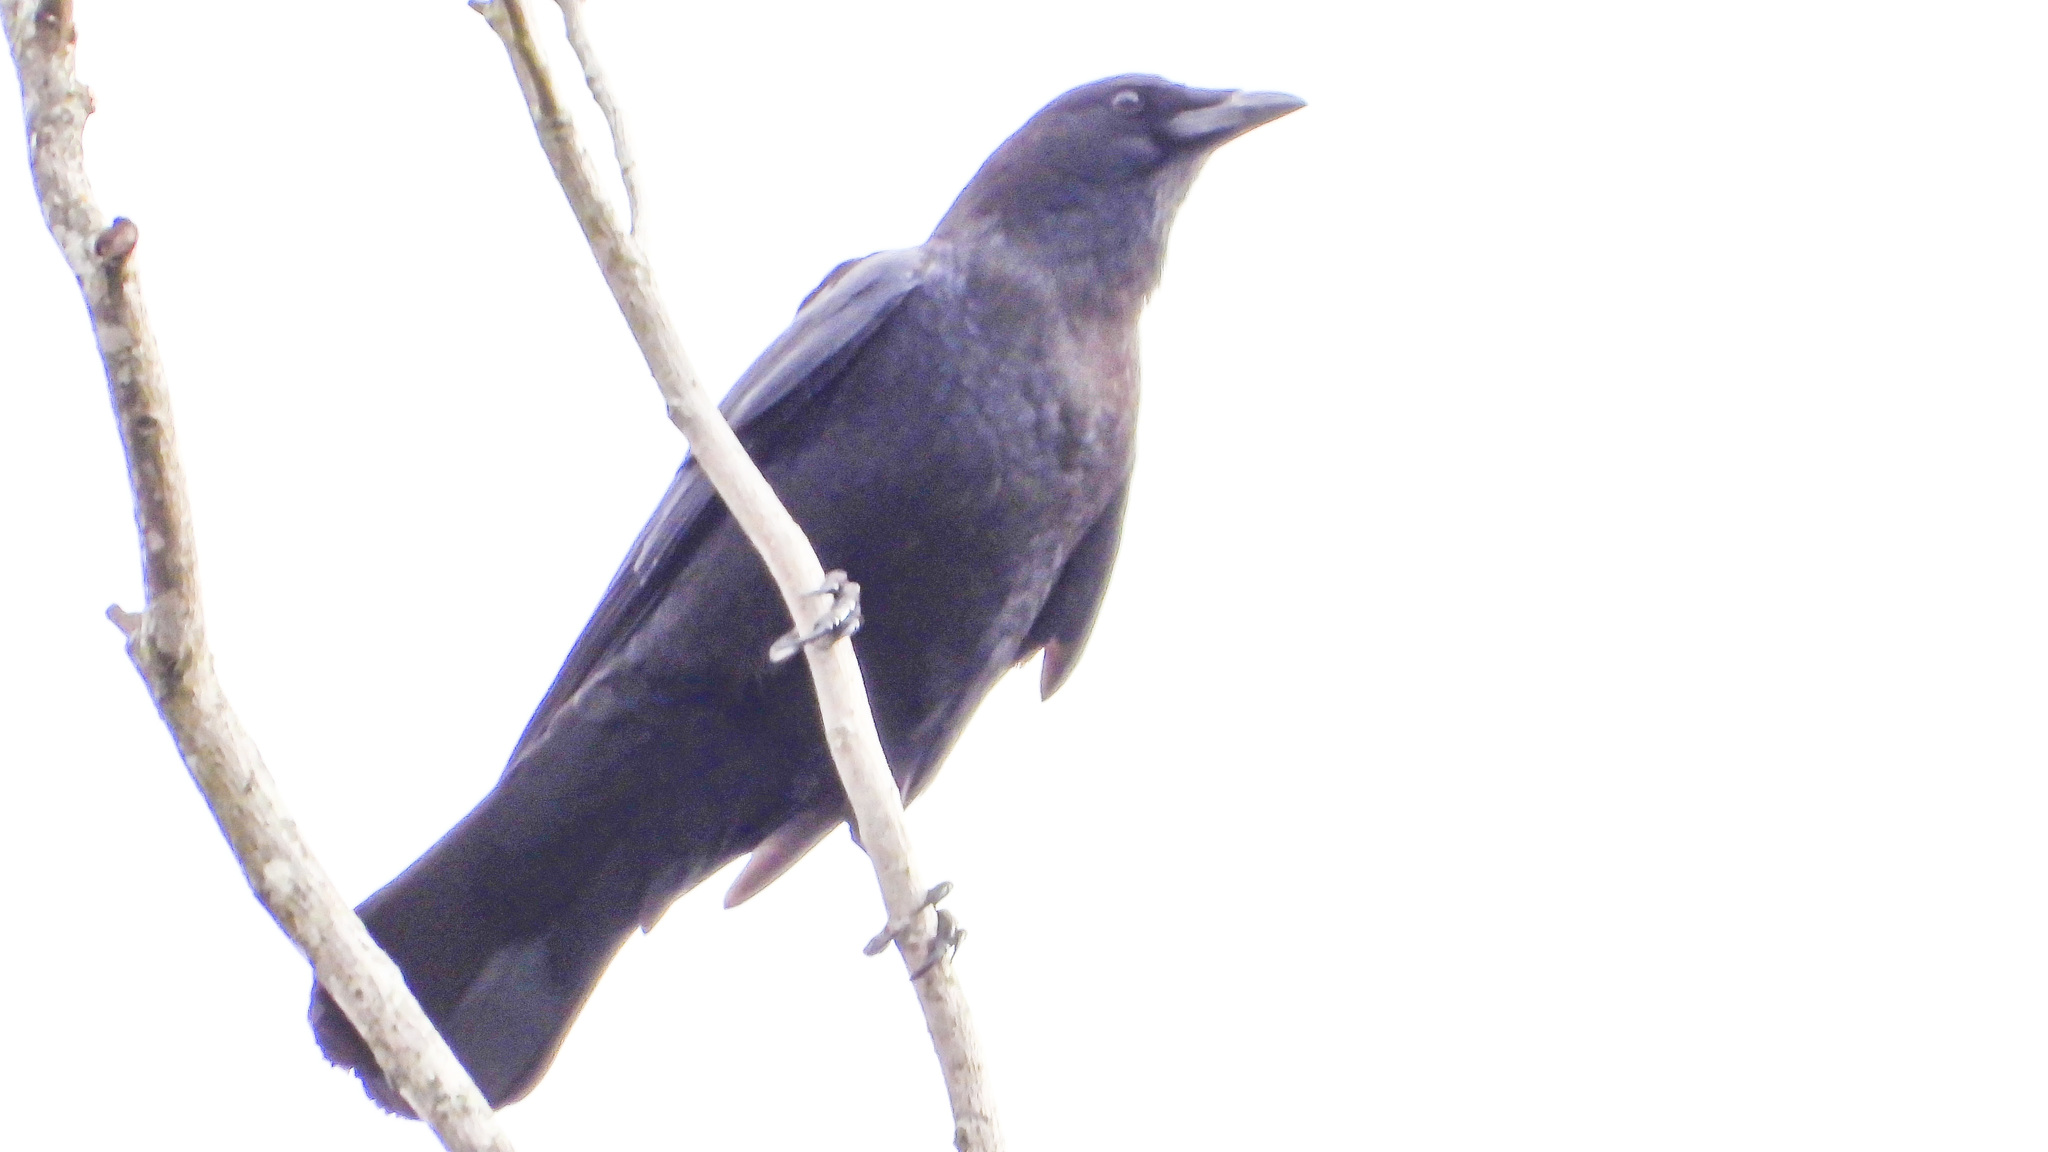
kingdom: Animalia
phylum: Chordata
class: Aves
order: Passeriformes
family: Corvidae
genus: Corvus
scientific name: Corvus brachyrhynchos
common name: American crow
